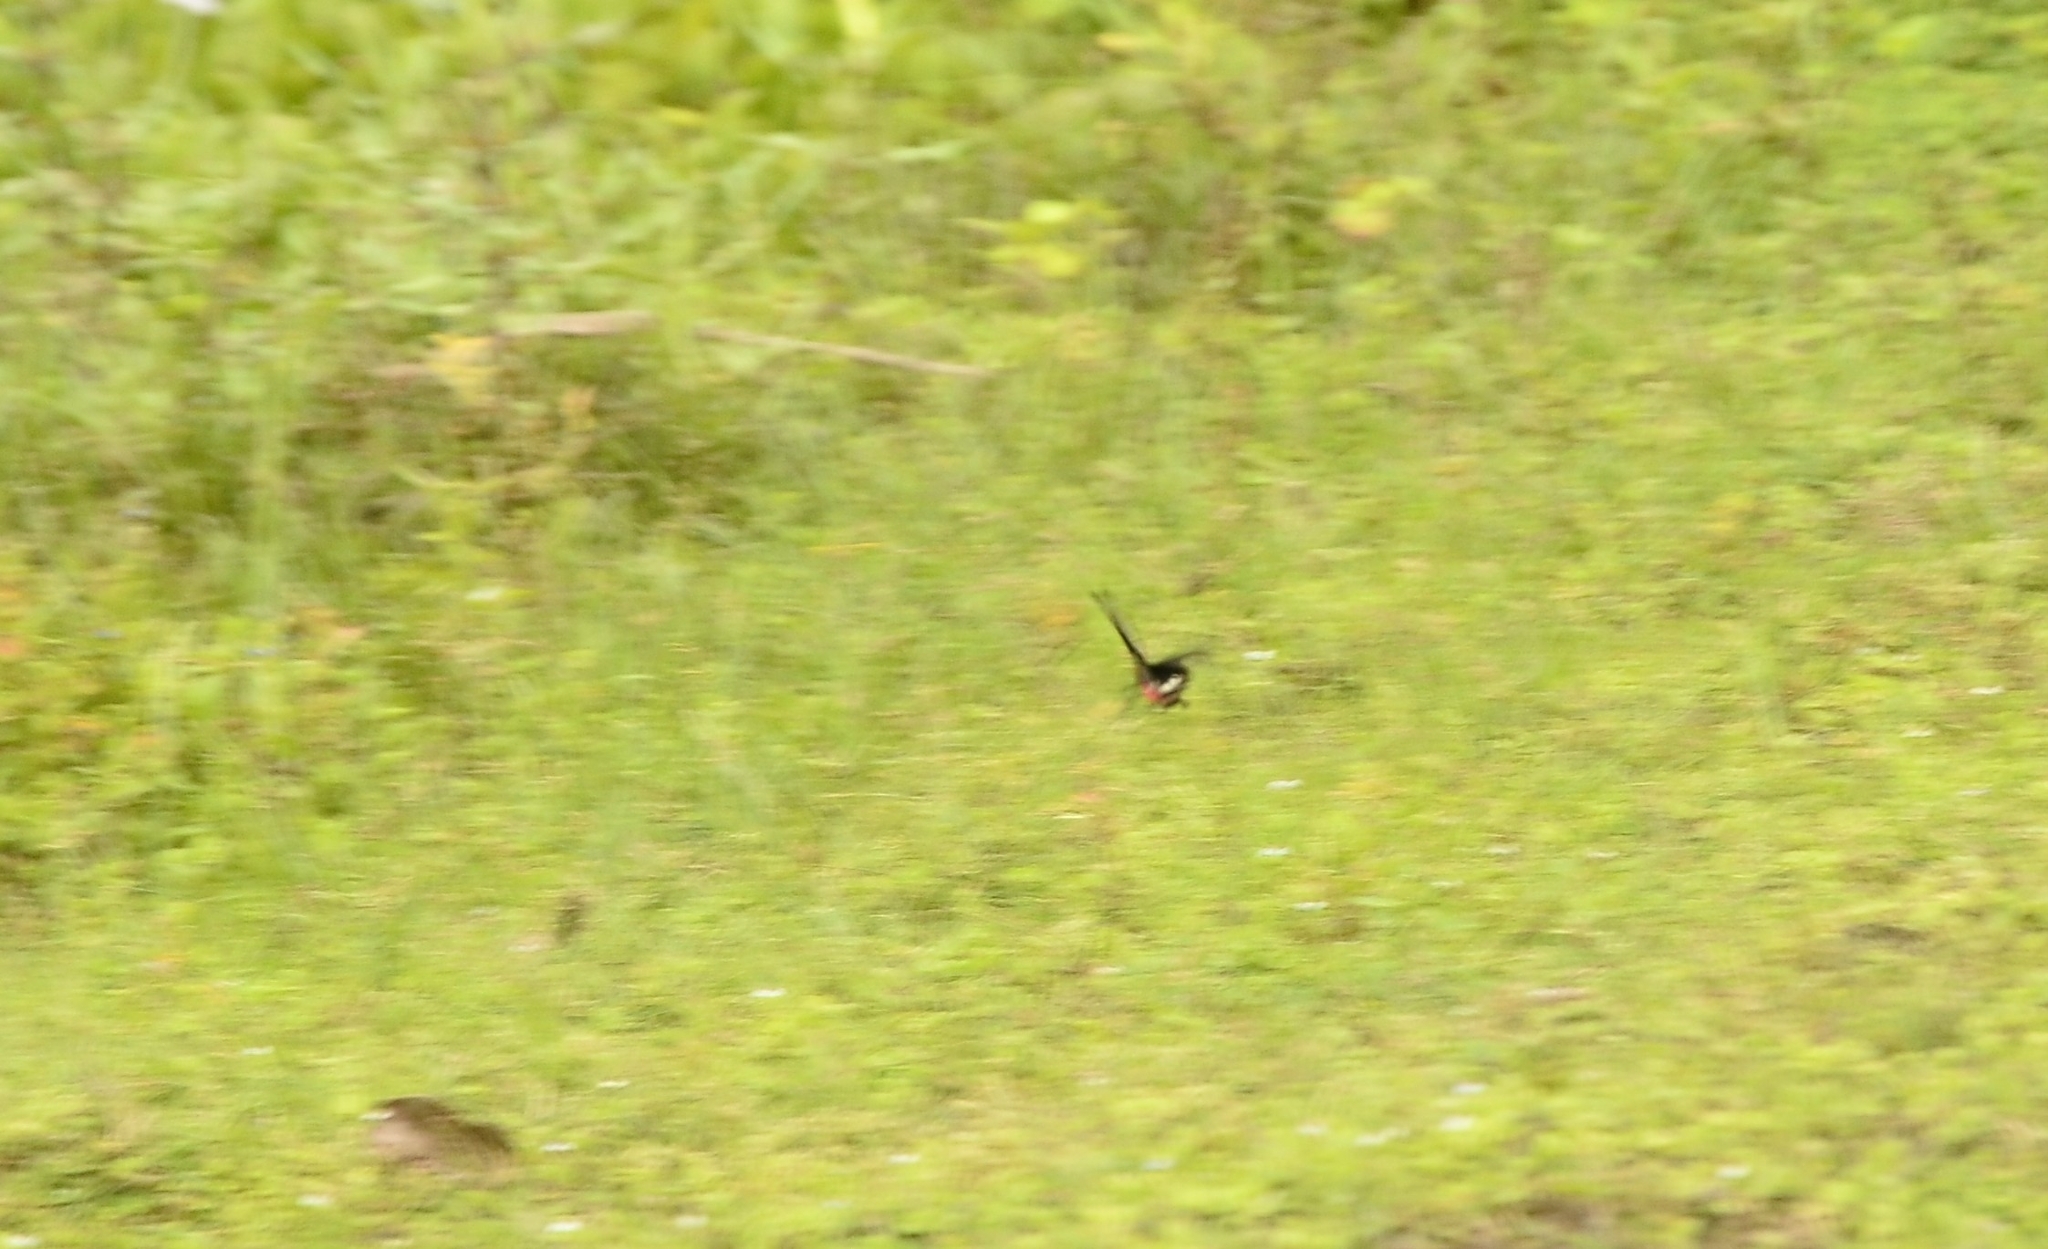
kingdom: Animalia
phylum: Arthropoda
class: Insecta
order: Lepidoptera
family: Papilionidae
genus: Pachliopta
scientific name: Pachliopta aristolochiae
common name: Common rose
